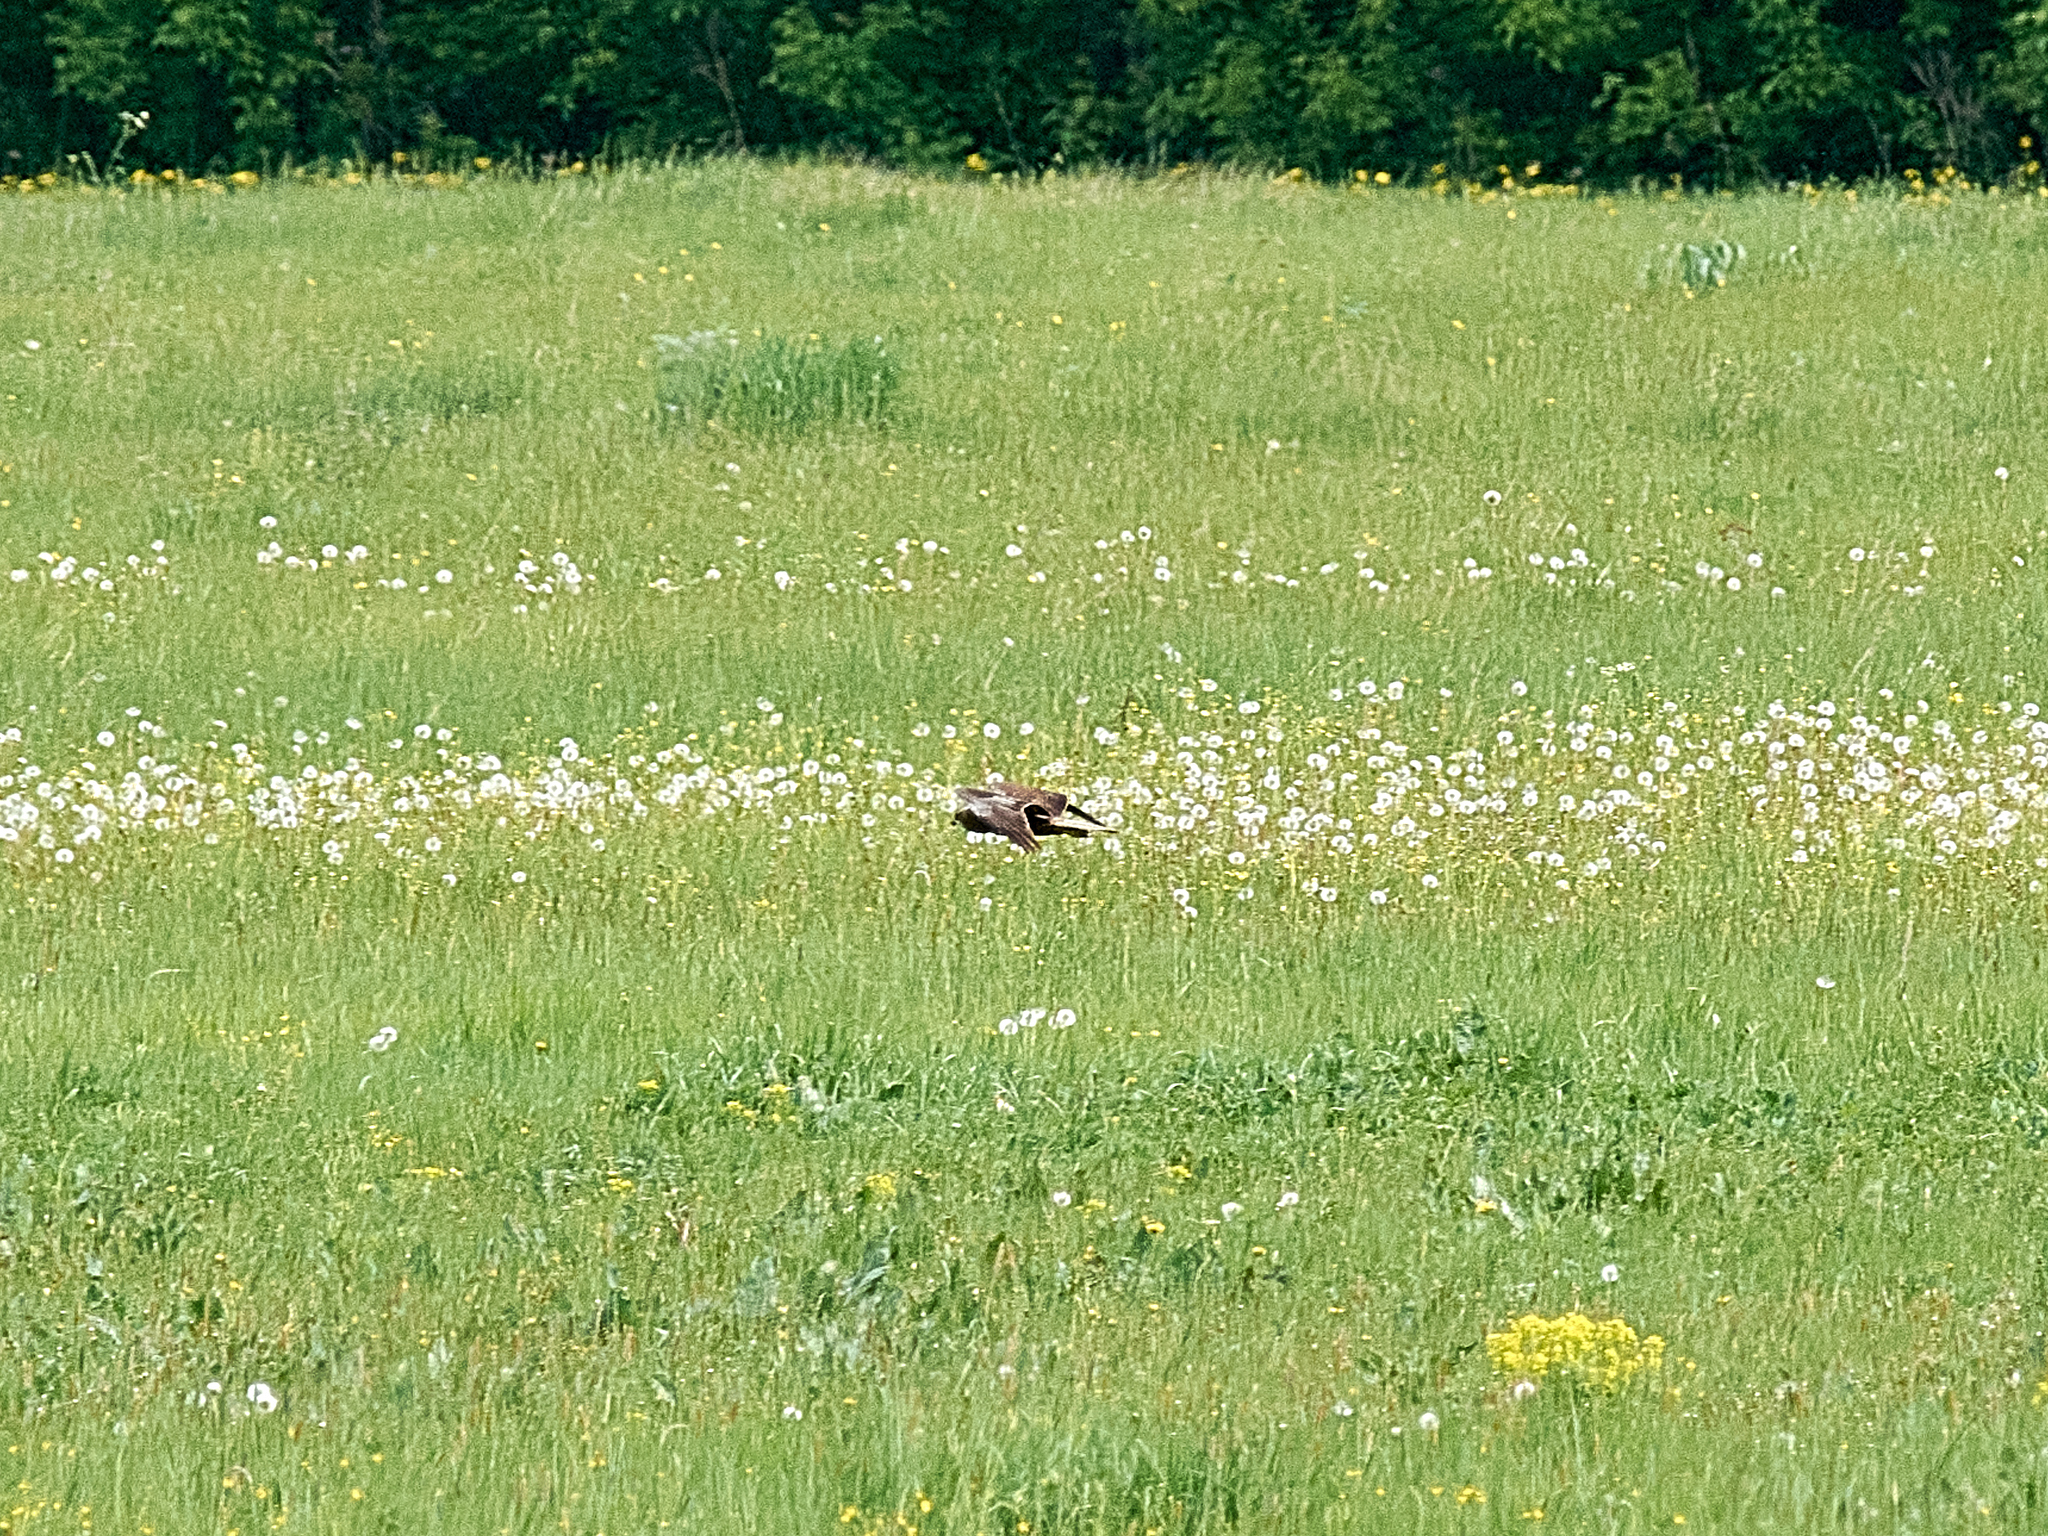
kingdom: Animalia
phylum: Chordata
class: Aves
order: Accipitriformes
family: Accipitridae
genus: Circus
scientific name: Circus aeruginosus
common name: Western marsh harrier
